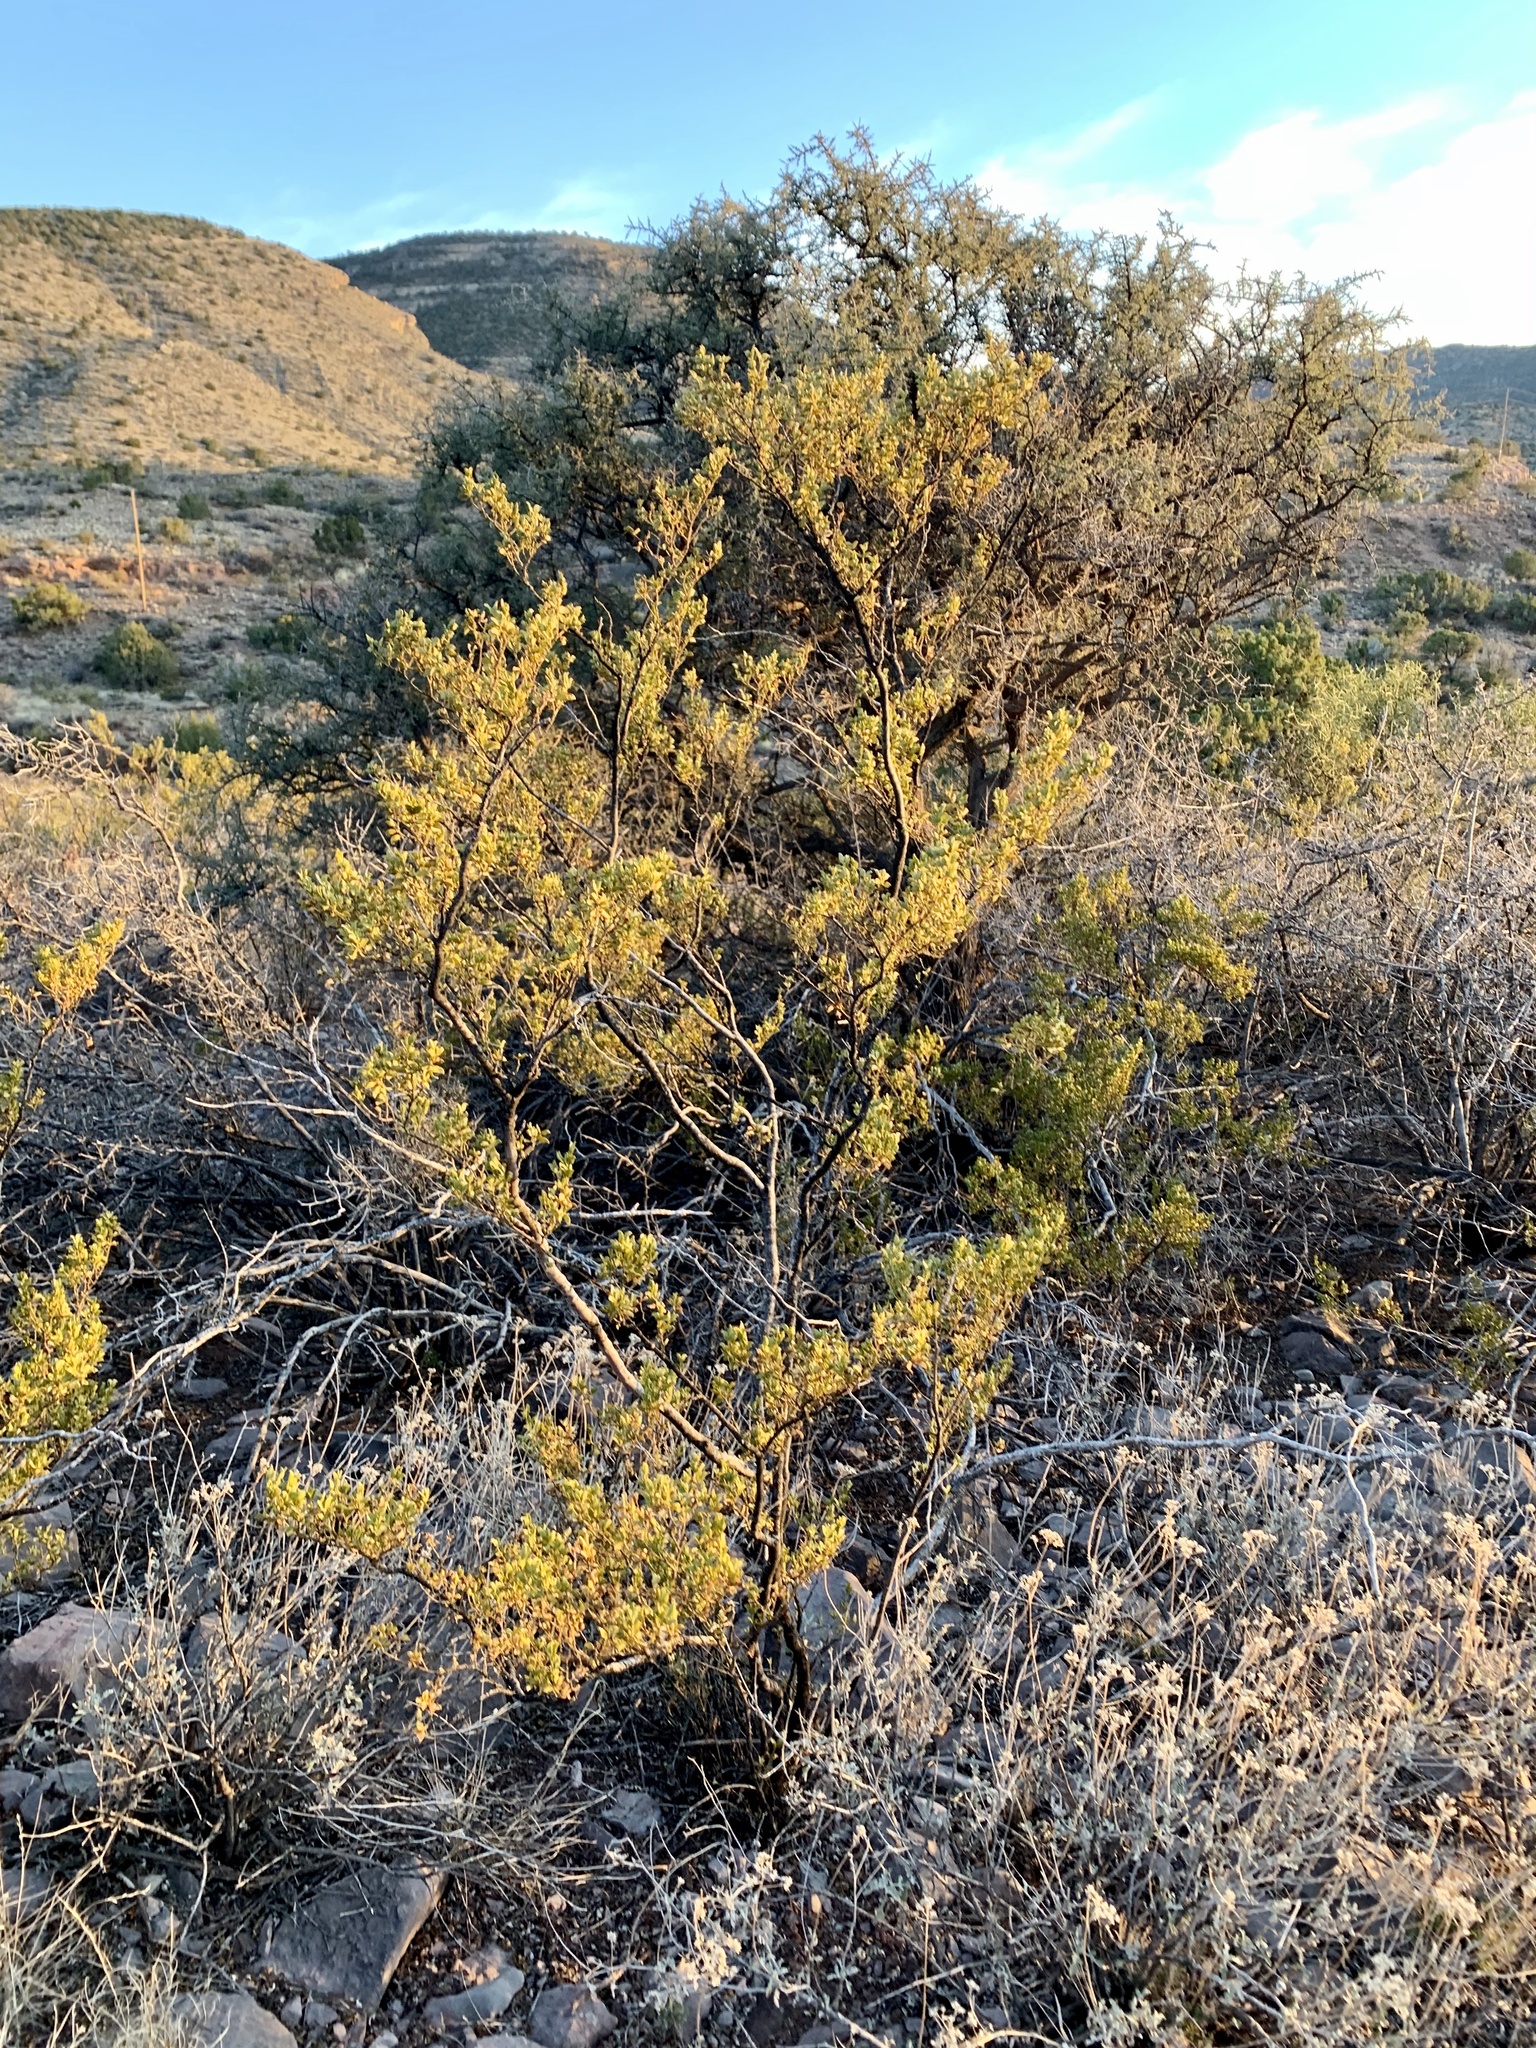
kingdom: Plantae
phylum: Tracheophyta
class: Magnoliopsida
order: Zygophyllales
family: Zygophyllaceae
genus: Larrea
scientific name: Larrea tridentata
